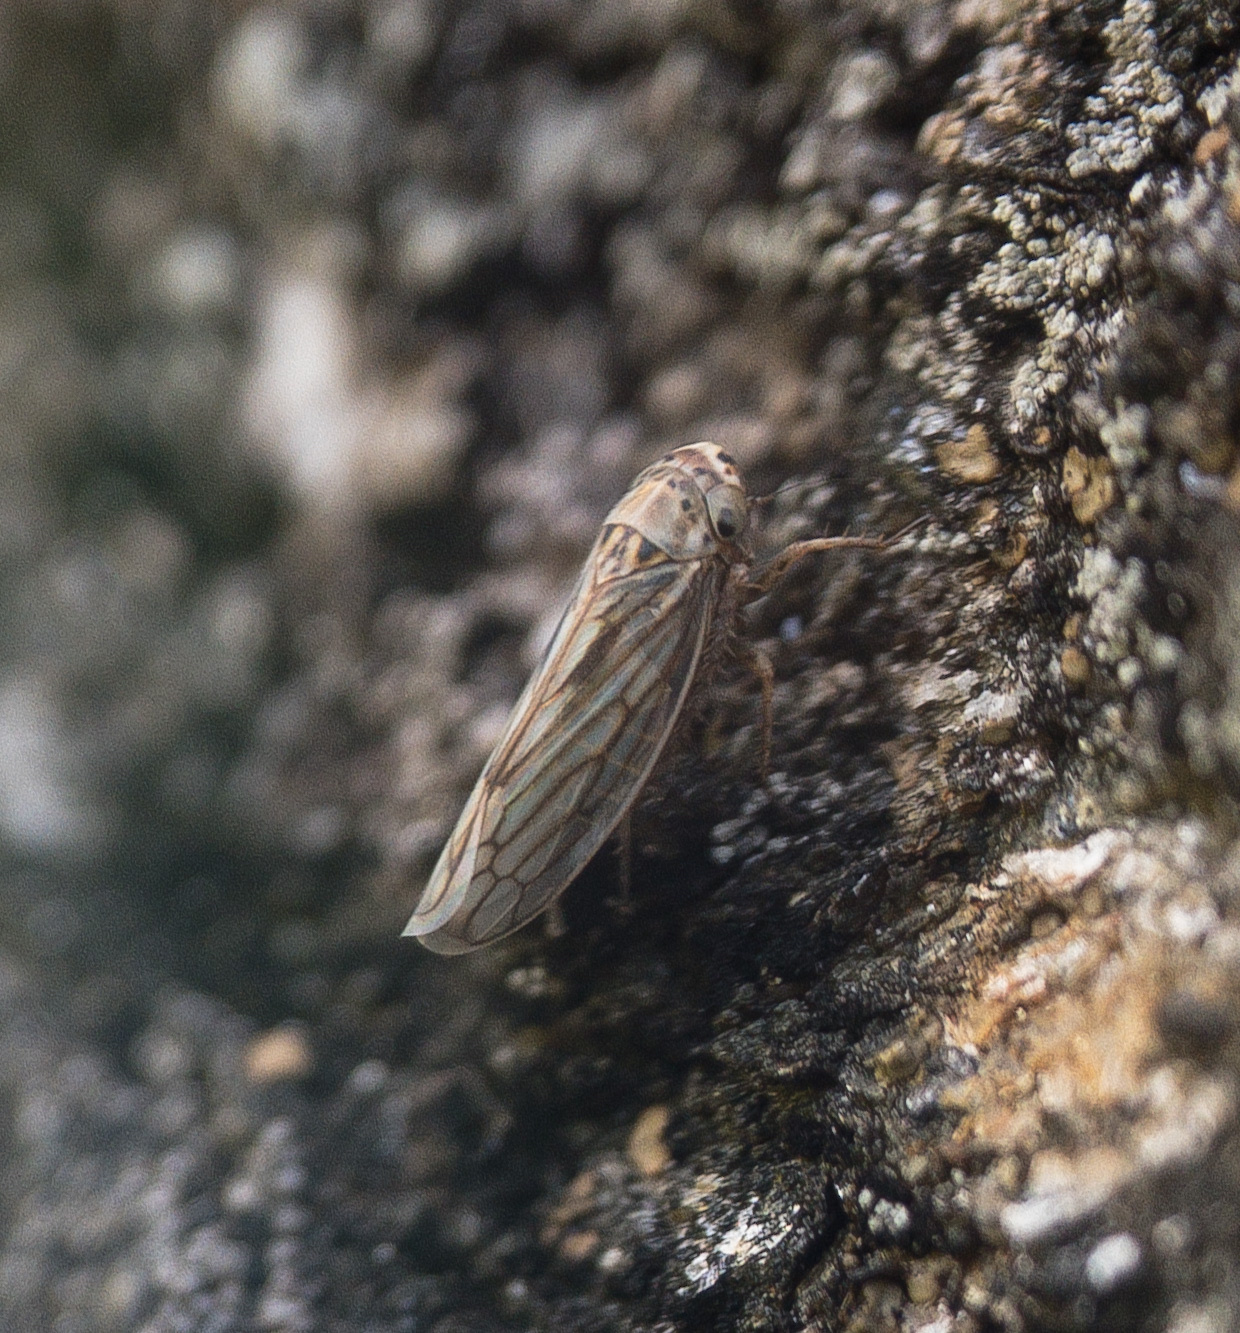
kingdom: Animalia
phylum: Arthropoda
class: Insecta
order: Hemiptera
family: Cicadellidae
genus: Exitianus
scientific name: Exitianus exitiosus
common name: Gray lawn leafhopper
